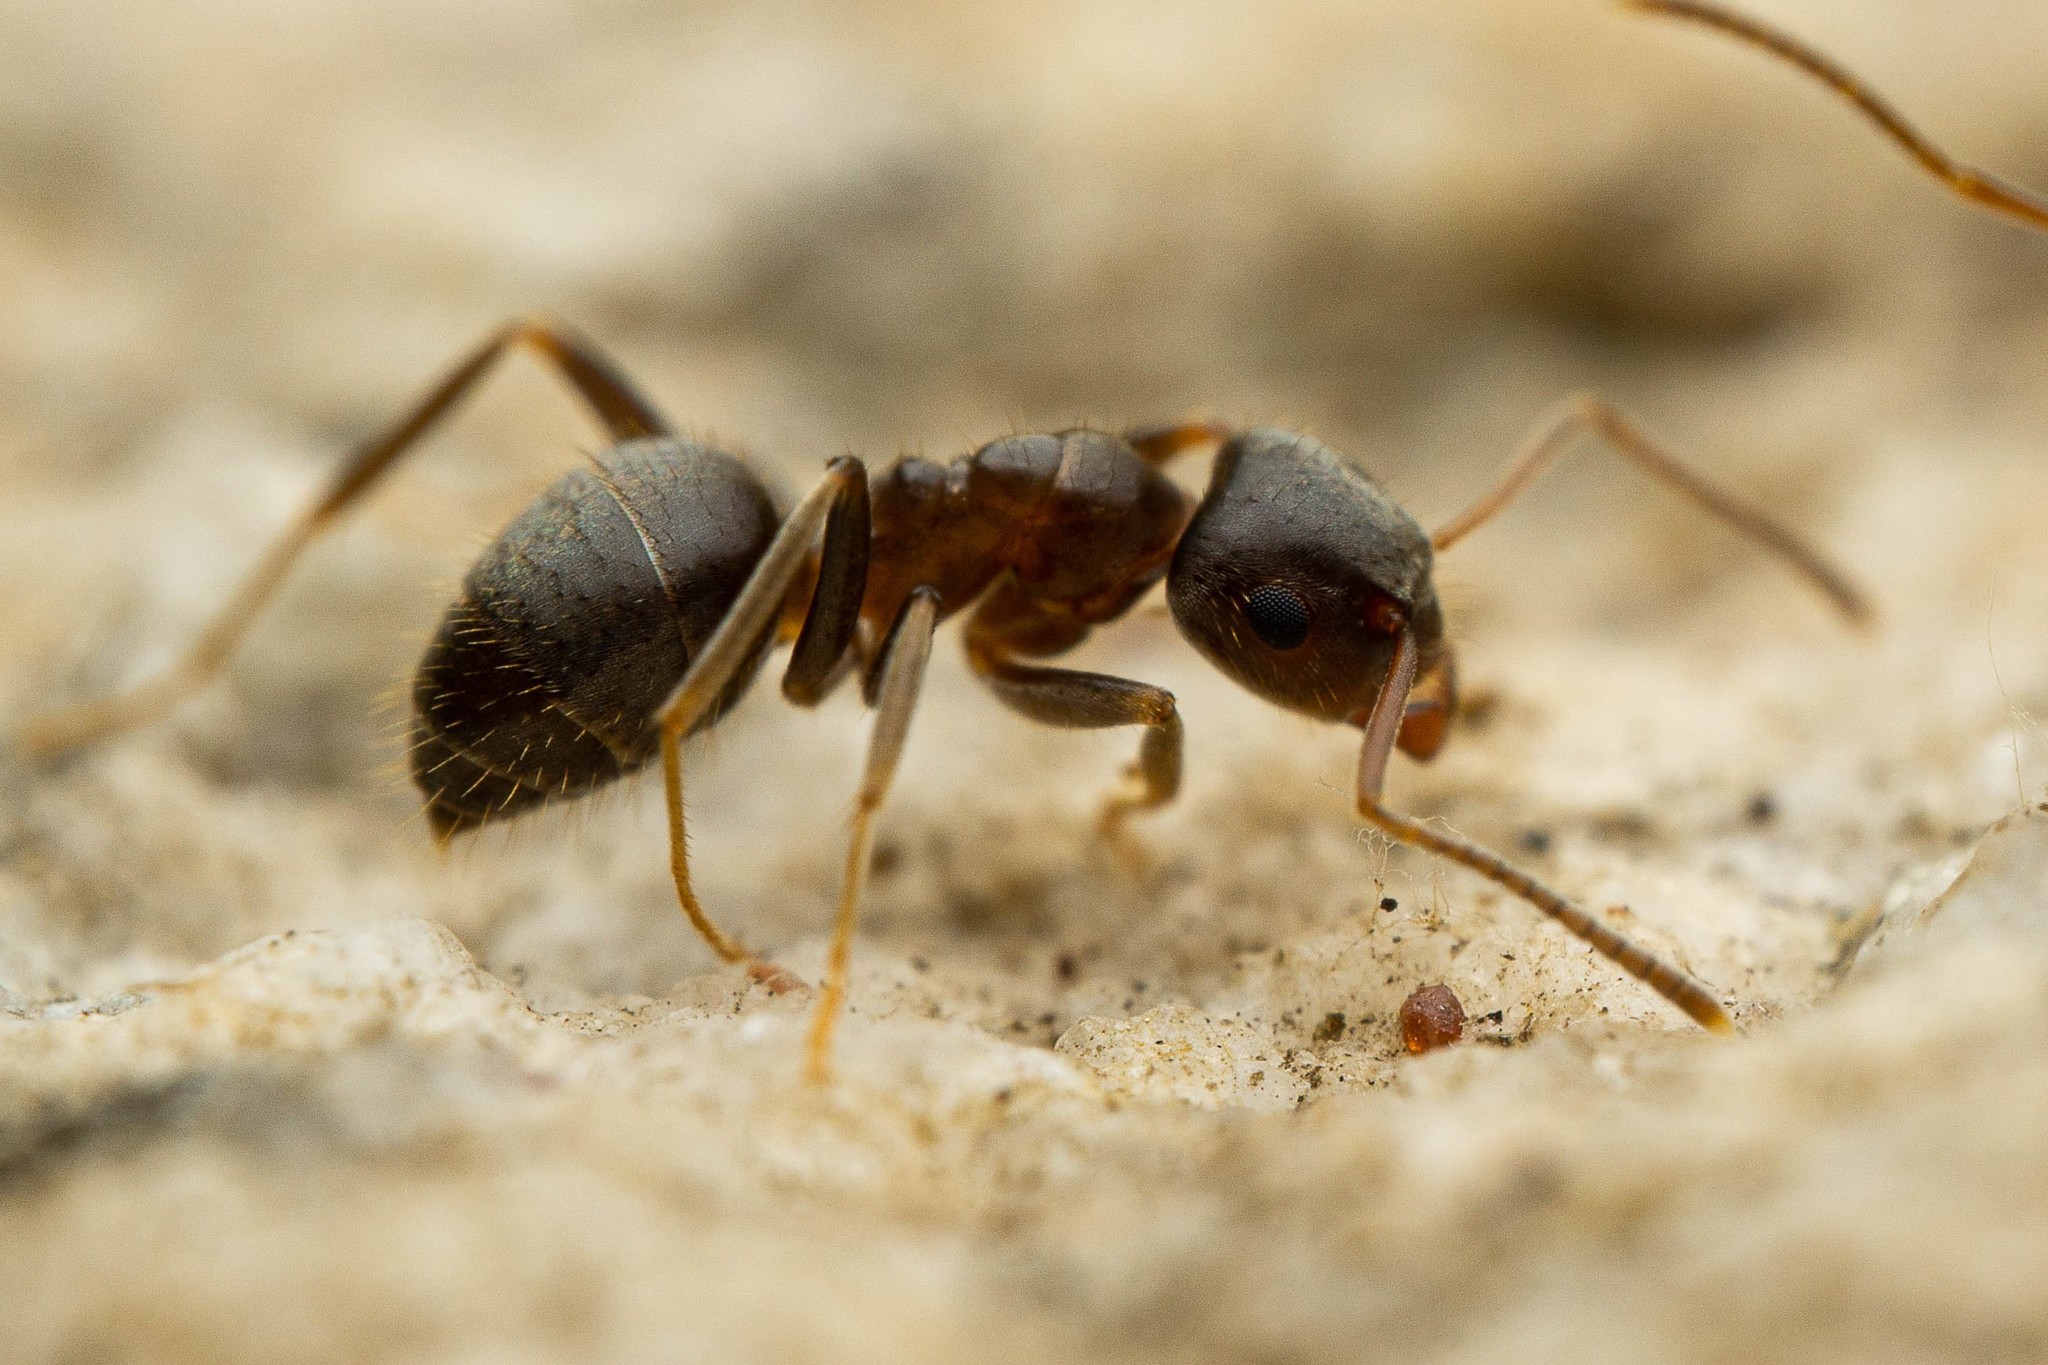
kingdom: Animalia
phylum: Arthropoda
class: Insecta
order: Hymenoptera
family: Formicidae
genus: Lasius
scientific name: Lasius americanus
